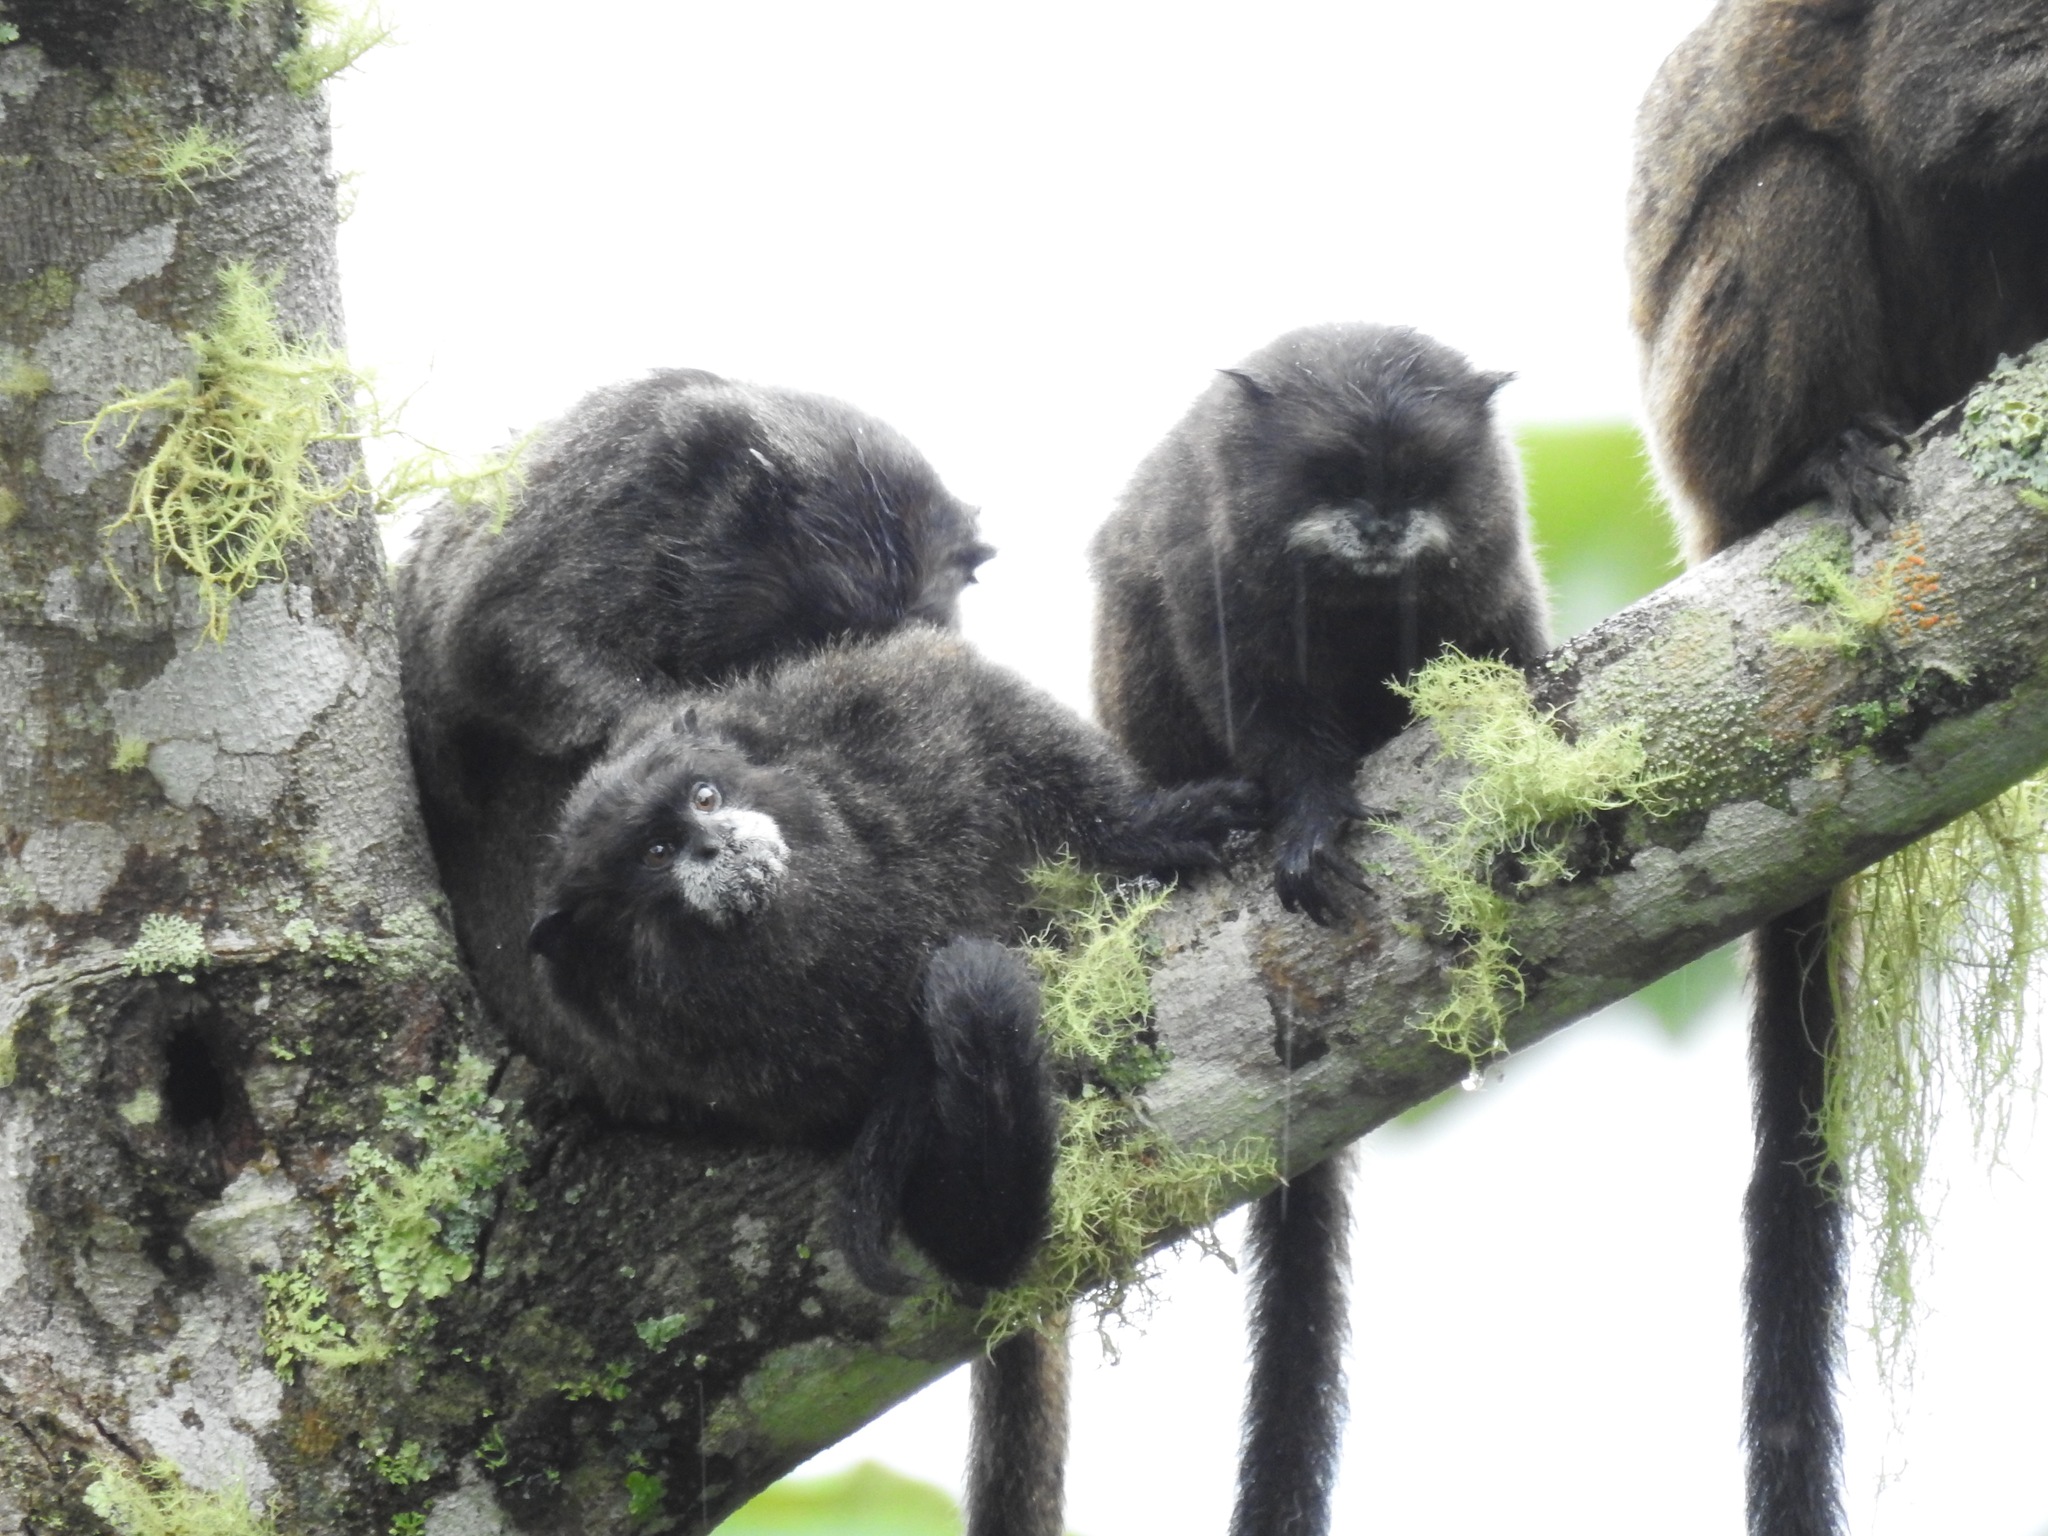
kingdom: Animalia
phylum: Chordata
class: Mammalia
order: Primates
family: Callitrichidae
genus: Leontocebus
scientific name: Leontocebus nigricollis
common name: Black-mantled tamarin
